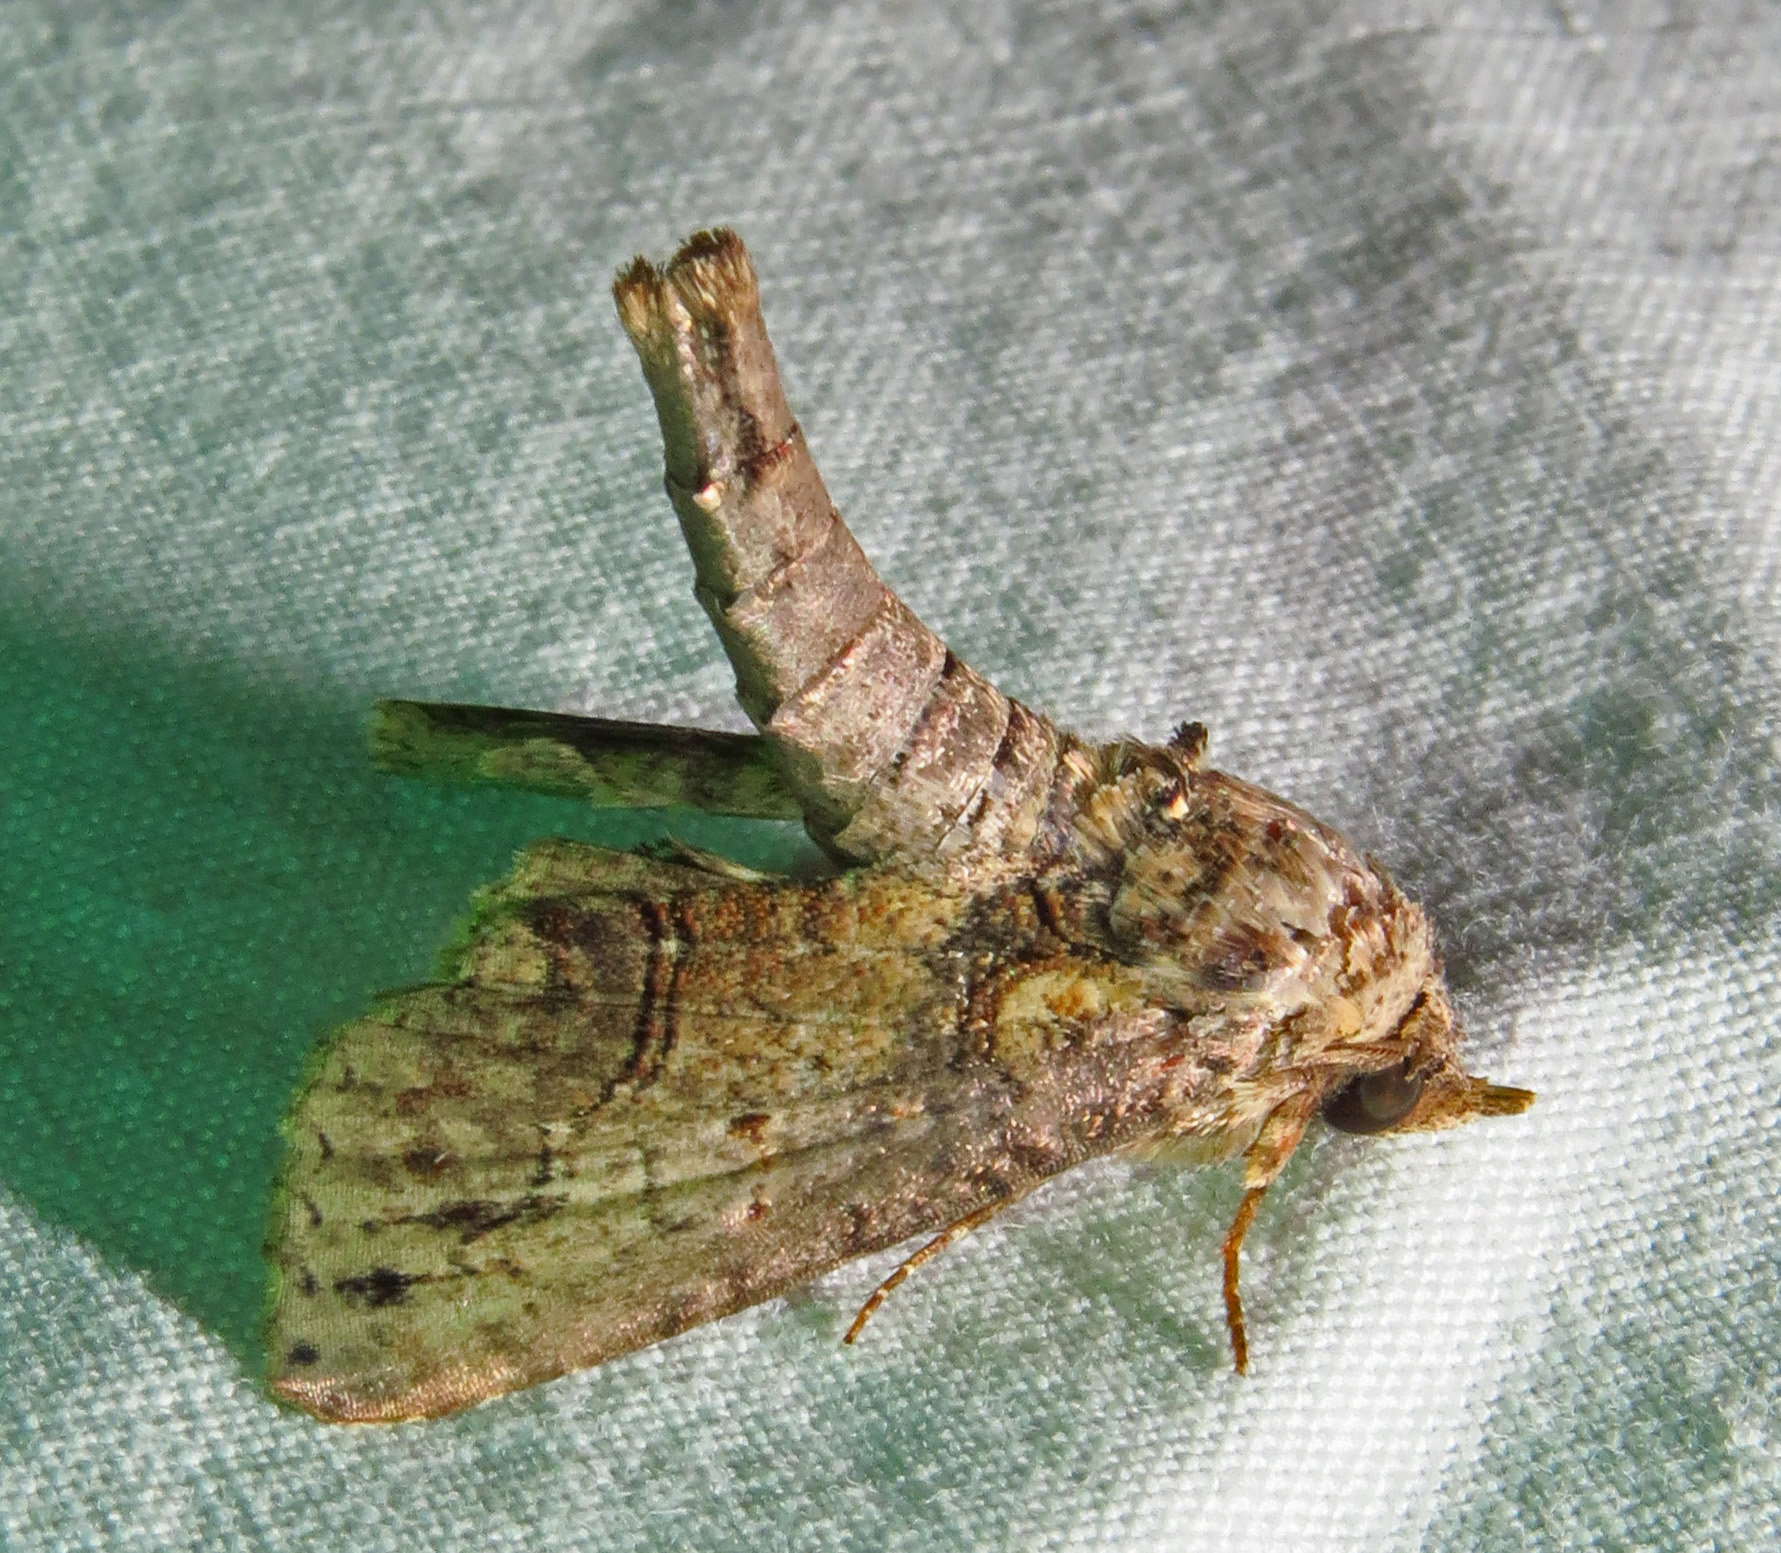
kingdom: Animalia
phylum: Arthropoda
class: Insecta
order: Lepidoptera
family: Euteliidae
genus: Paectes
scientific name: Paectes abrostoloides
